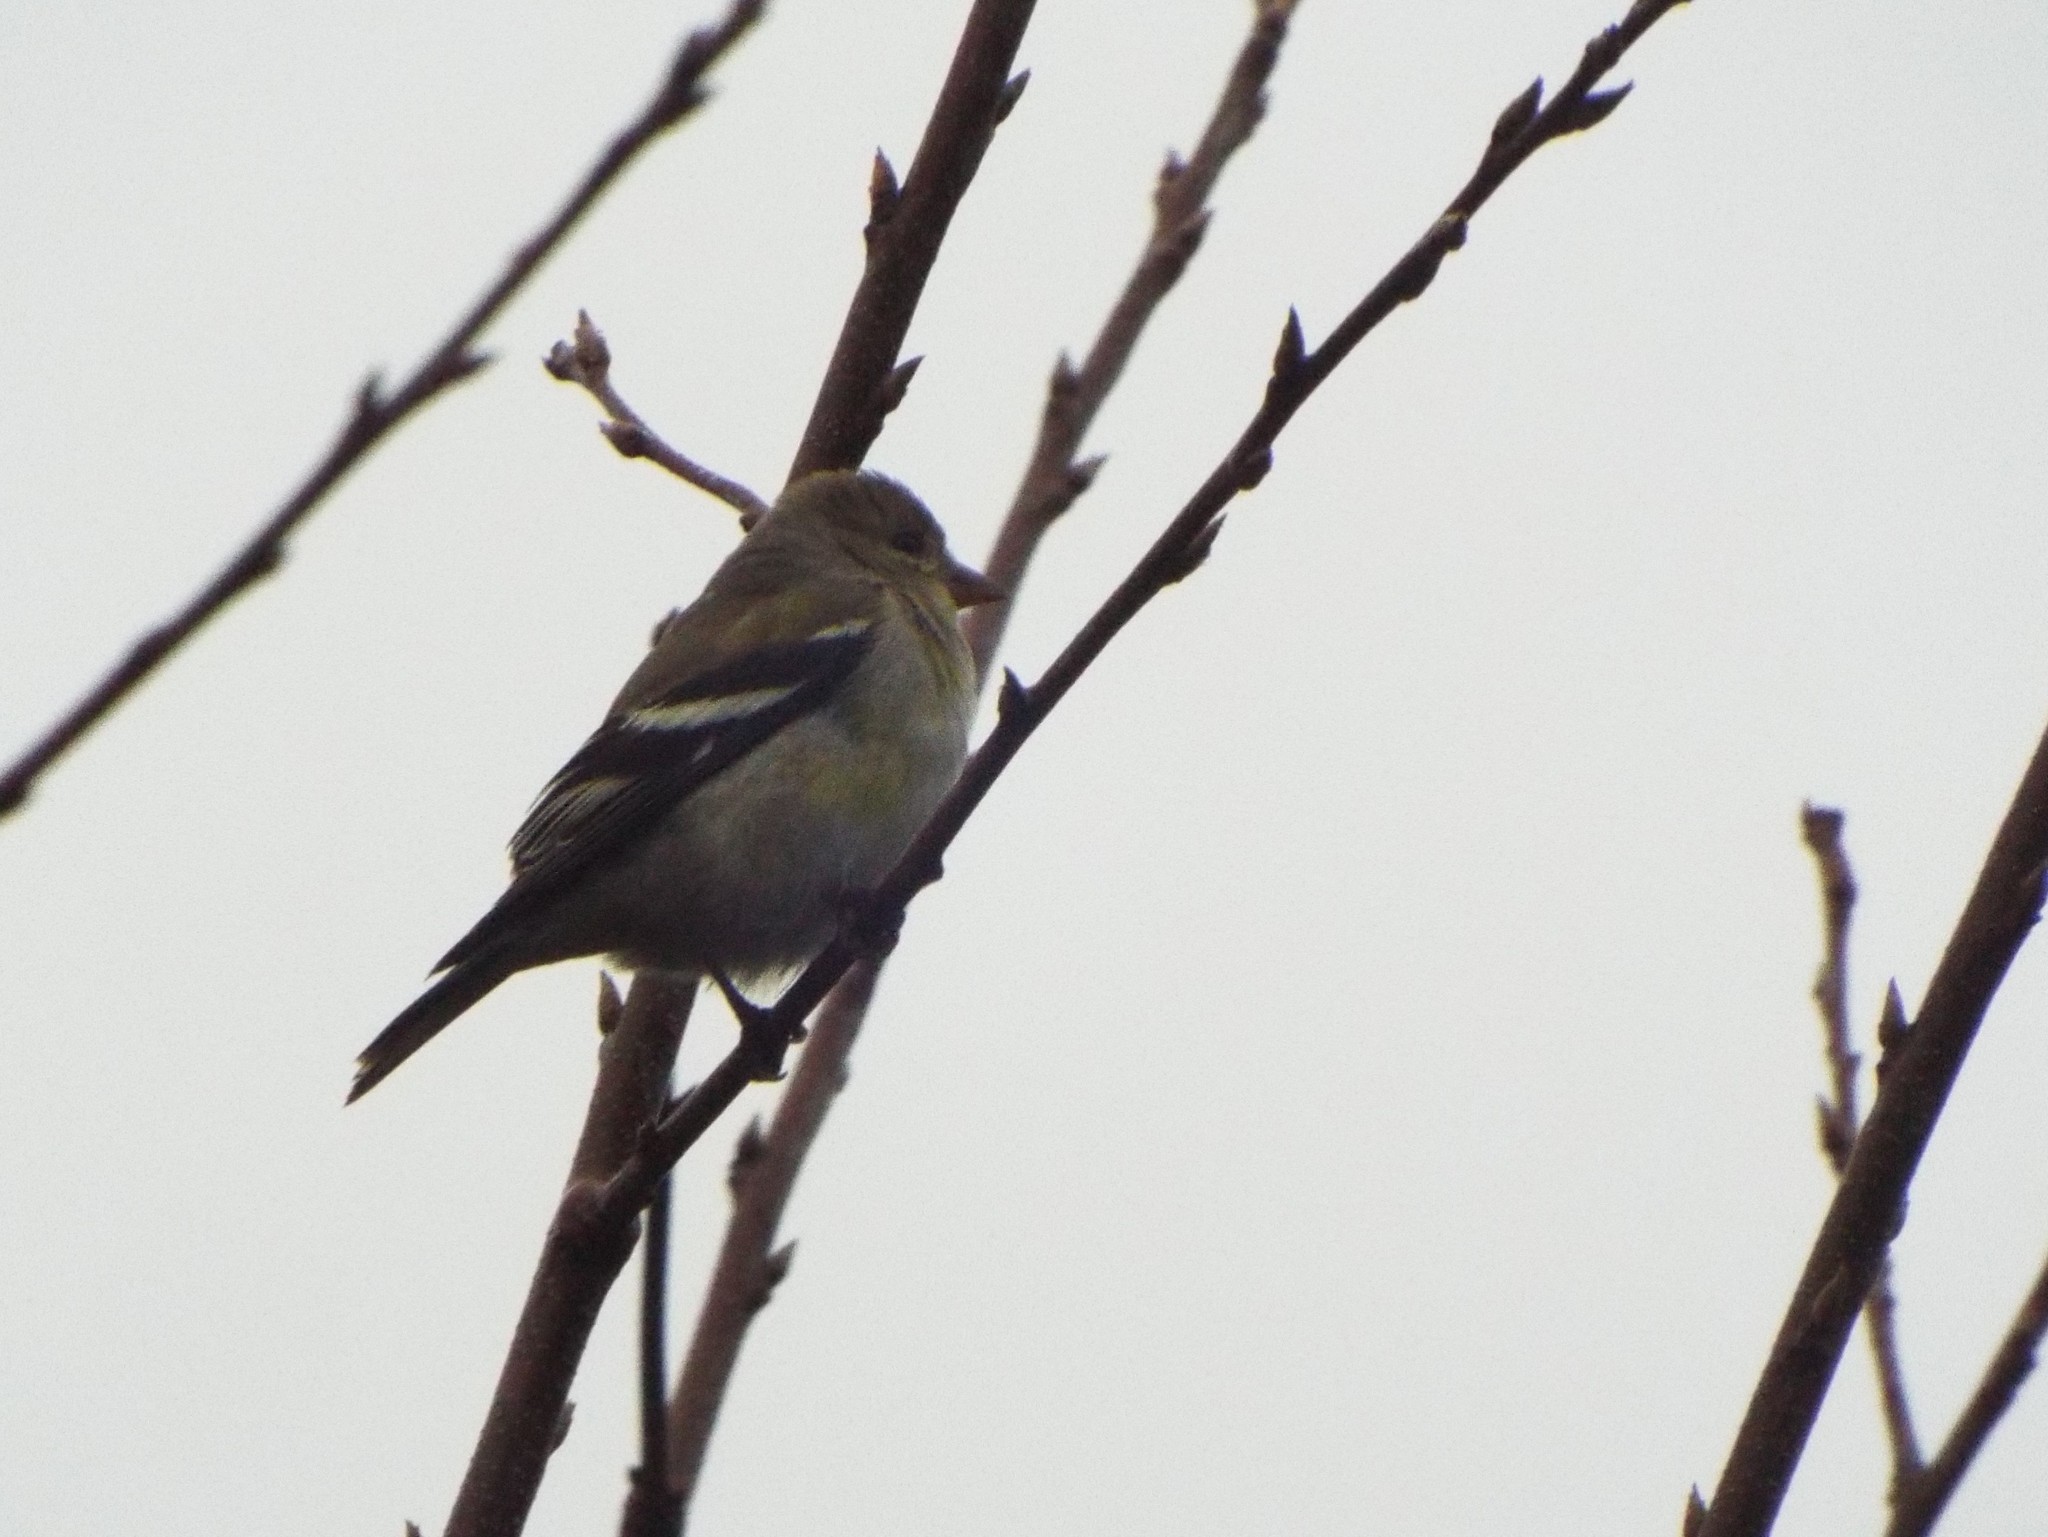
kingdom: Animalia
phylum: Chordata
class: Aves
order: Passeriformes
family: Fringillidae
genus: Spinus
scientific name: Spinus tristis
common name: American goldfinch
